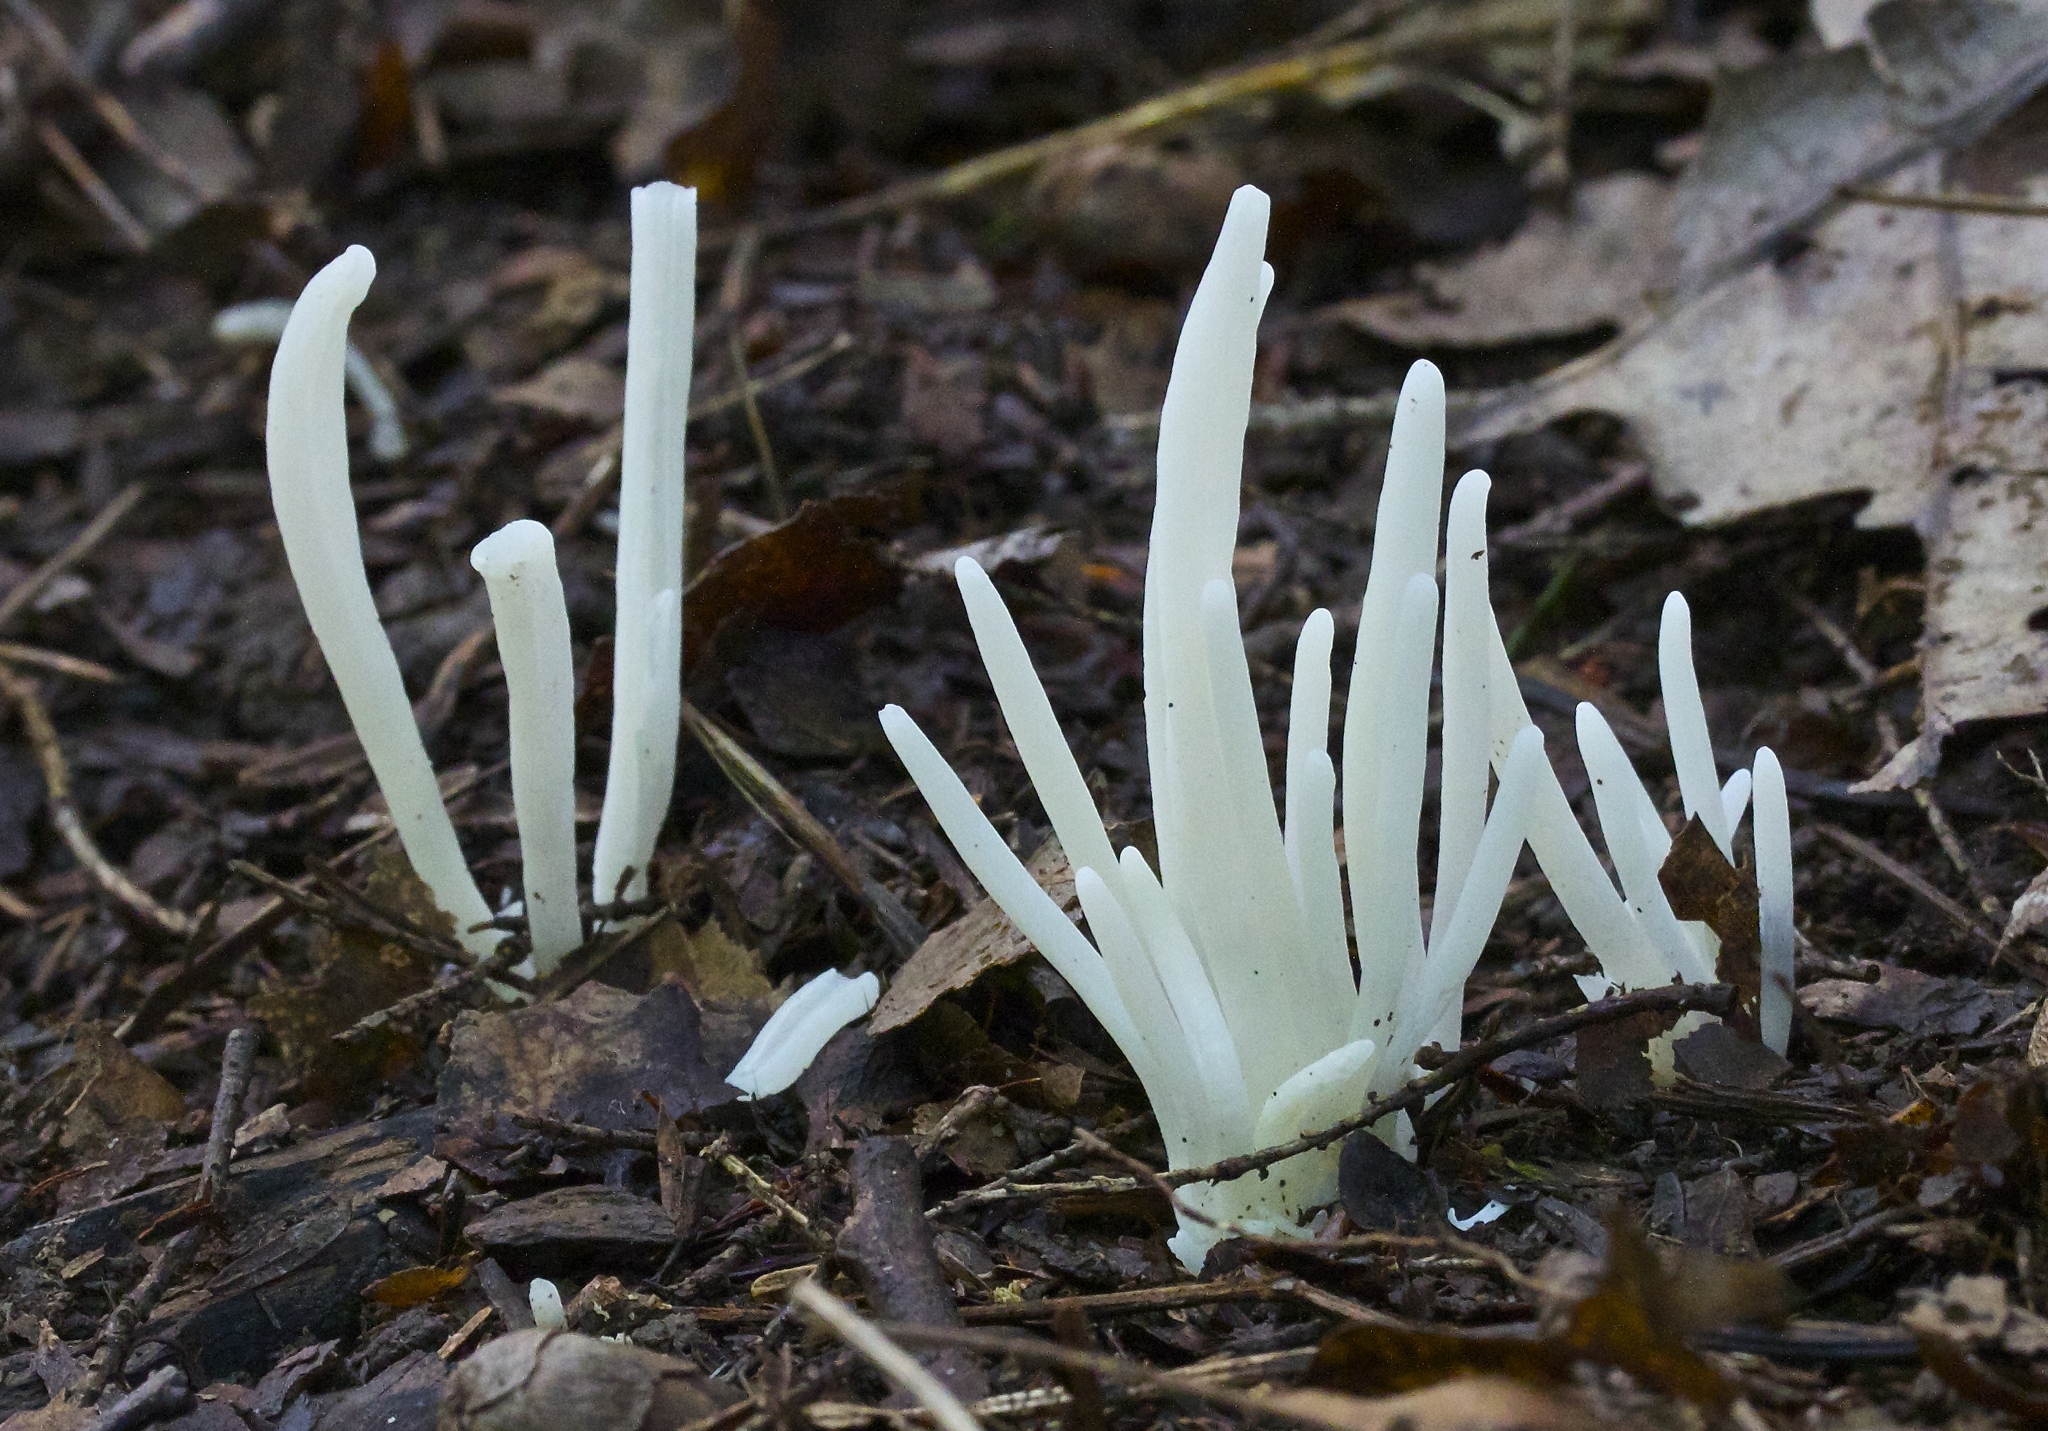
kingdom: Fungi
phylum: Basidiomycota
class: Agaricomycetes
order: Agaricales
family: Clavariaceae
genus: Clavaria
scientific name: Clavaria fragilis
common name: White spindles
